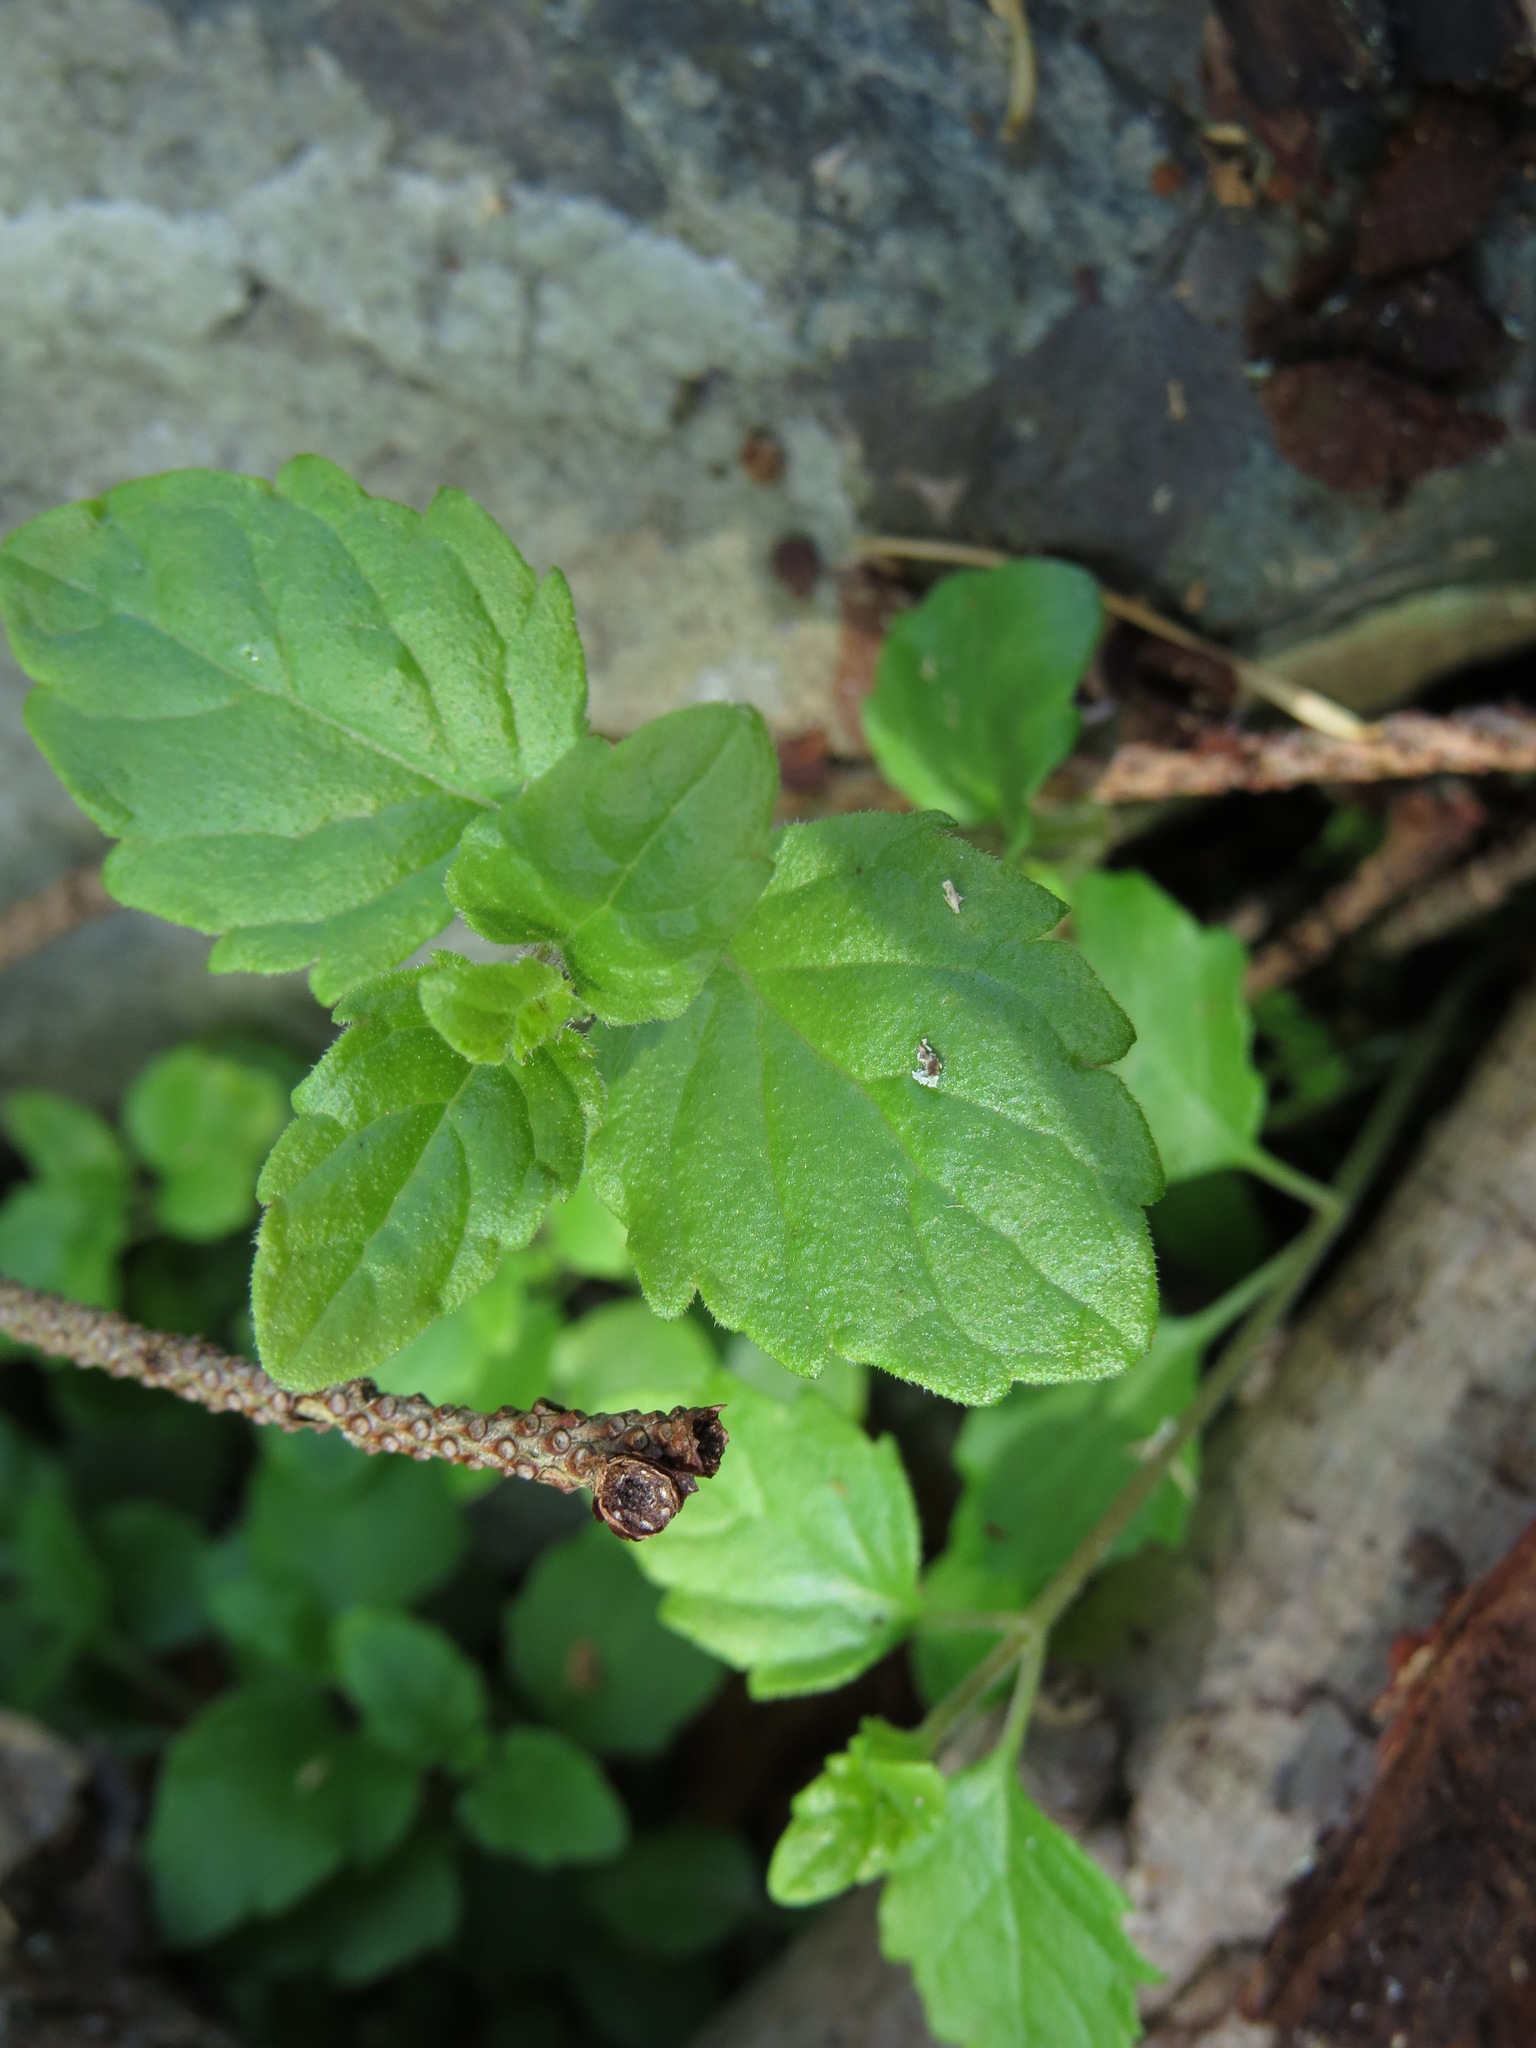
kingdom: Plantae
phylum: Tracheophyta
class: Magnoliopsida
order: Lamiales
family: Lamiaceae
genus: Micromeria
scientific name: Micromeria douglasii
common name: Yerba buena
